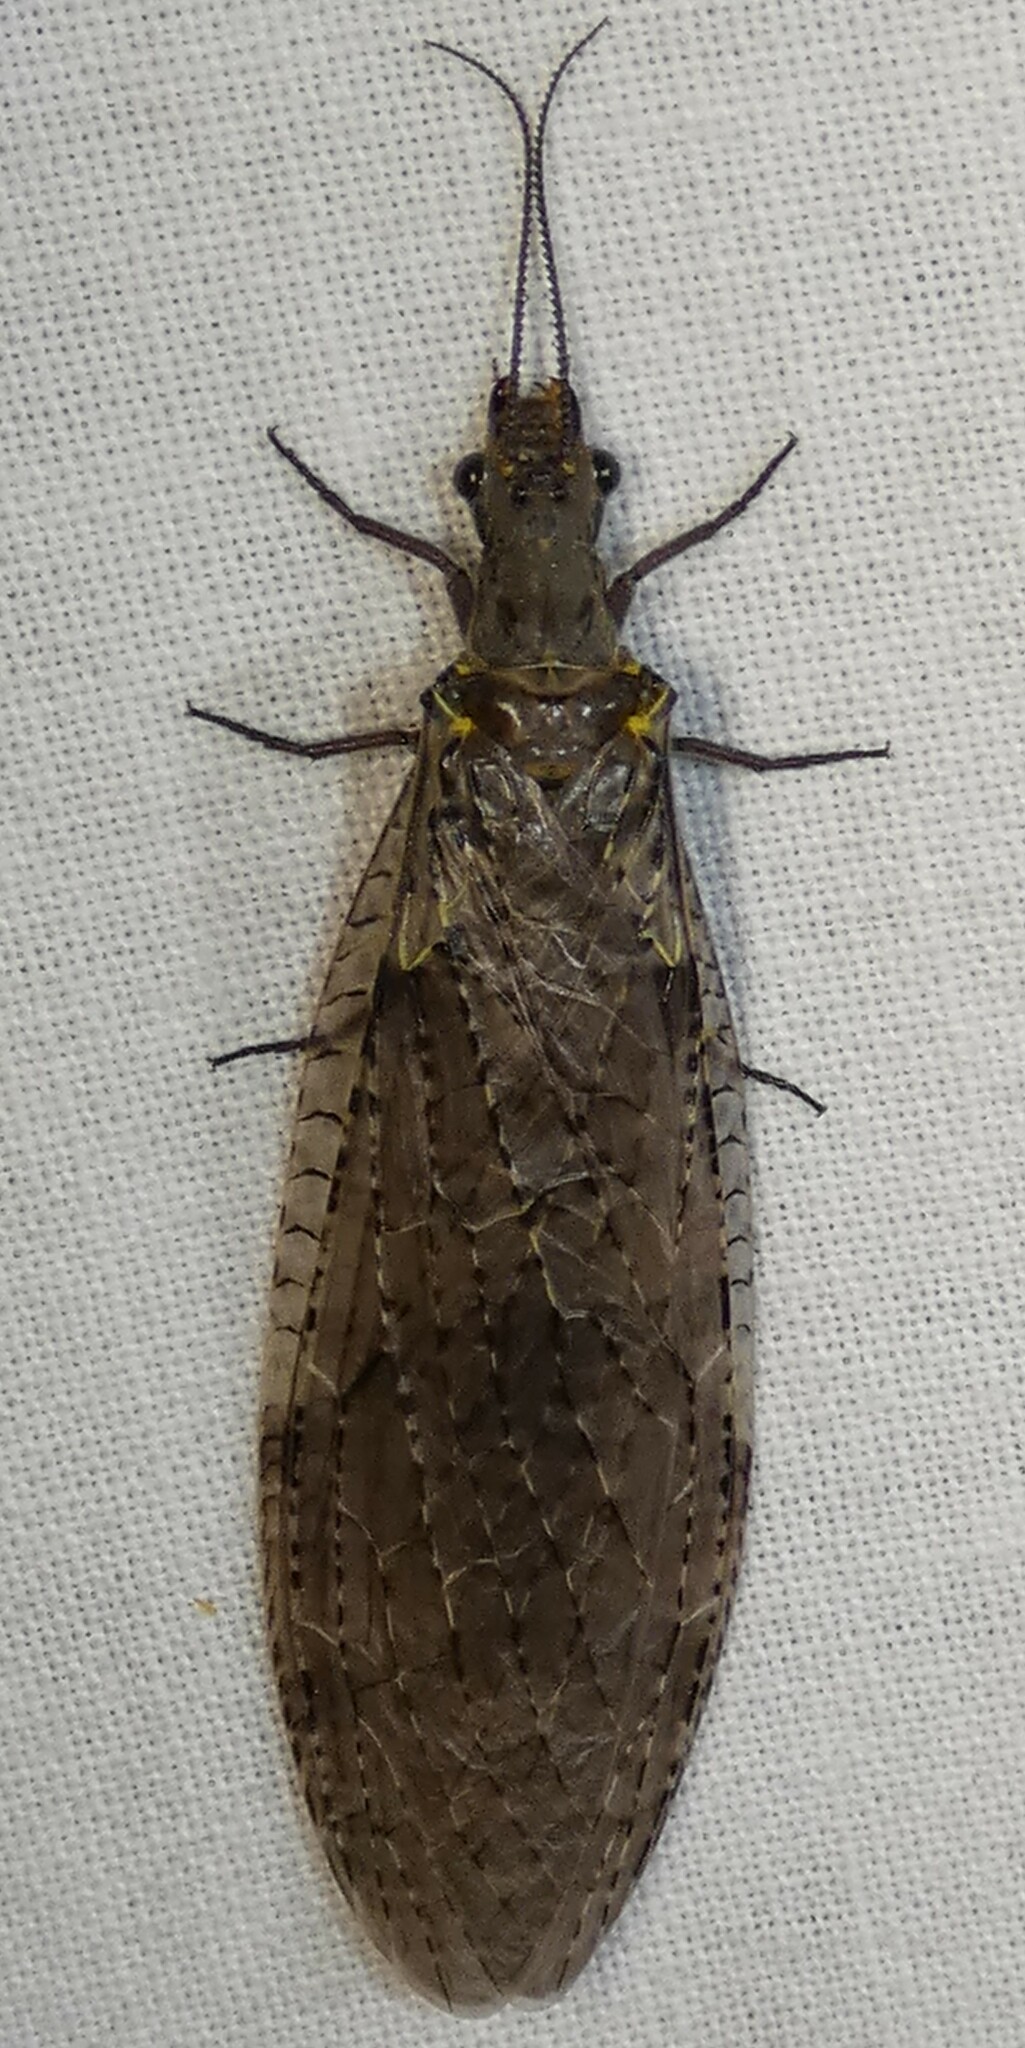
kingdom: Animalia
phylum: Arthropoda
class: Insecta
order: Megaloptera
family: Corydalidae
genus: Chauliodes
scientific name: Chauliodes rastricornis
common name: Spring fishfly
